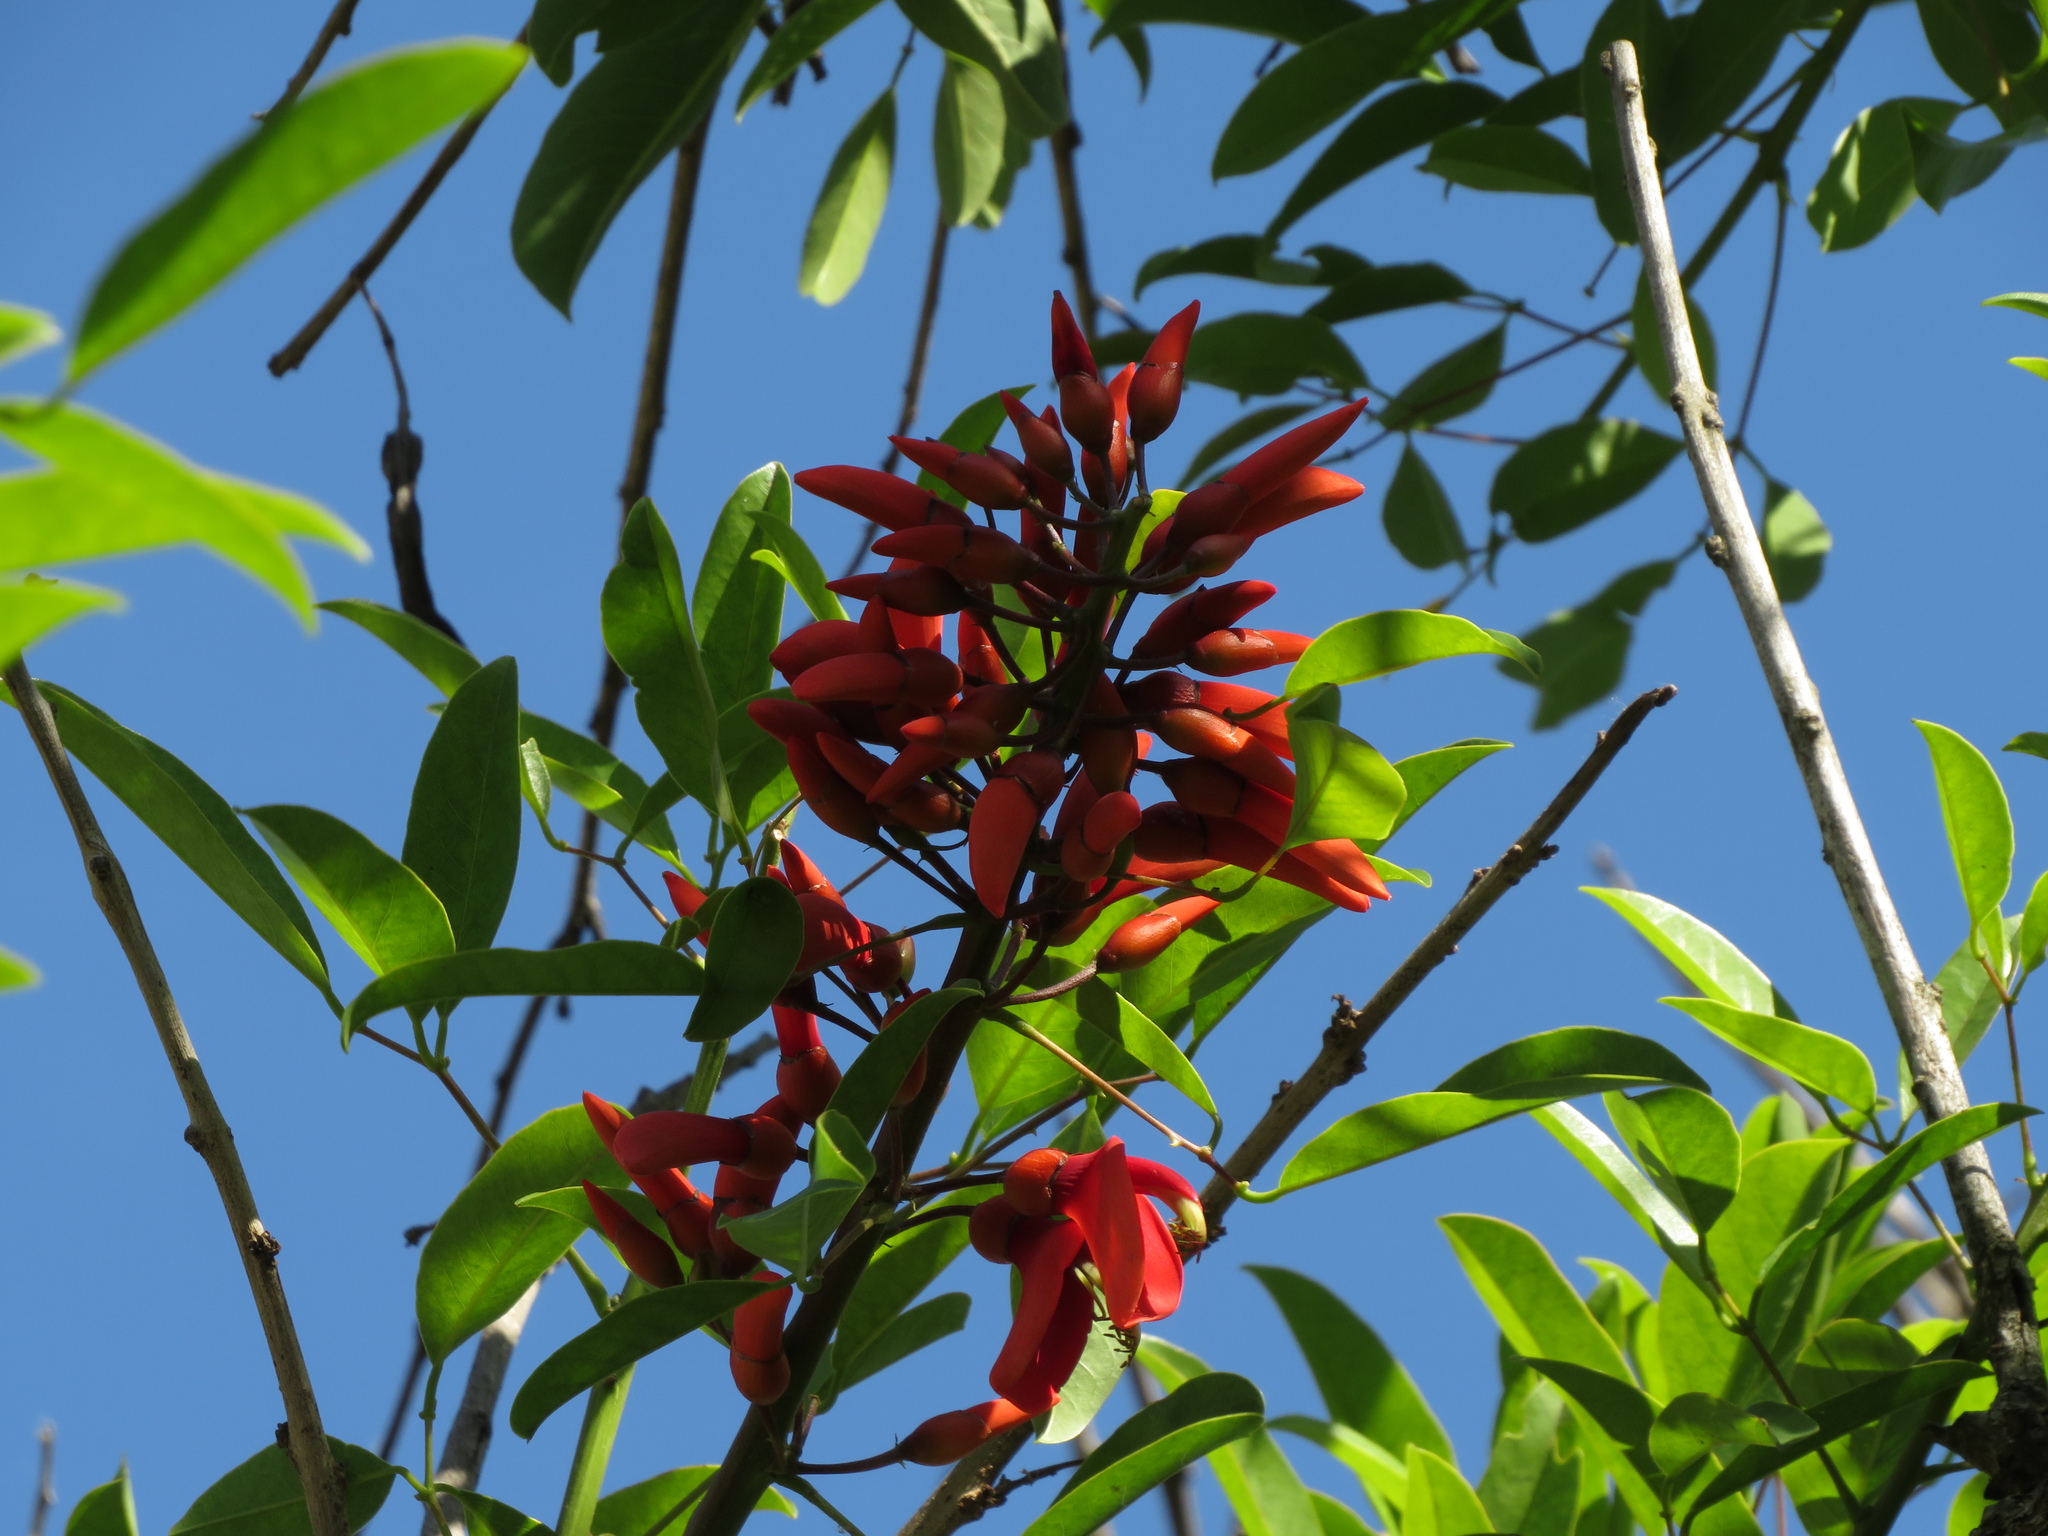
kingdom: Plantae
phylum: Tracheophyta
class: Magnoliopsida
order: Fabales
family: Fabaceae
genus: Erythrina
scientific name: Erythrina crista-galli
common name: Cockspur coral tree
